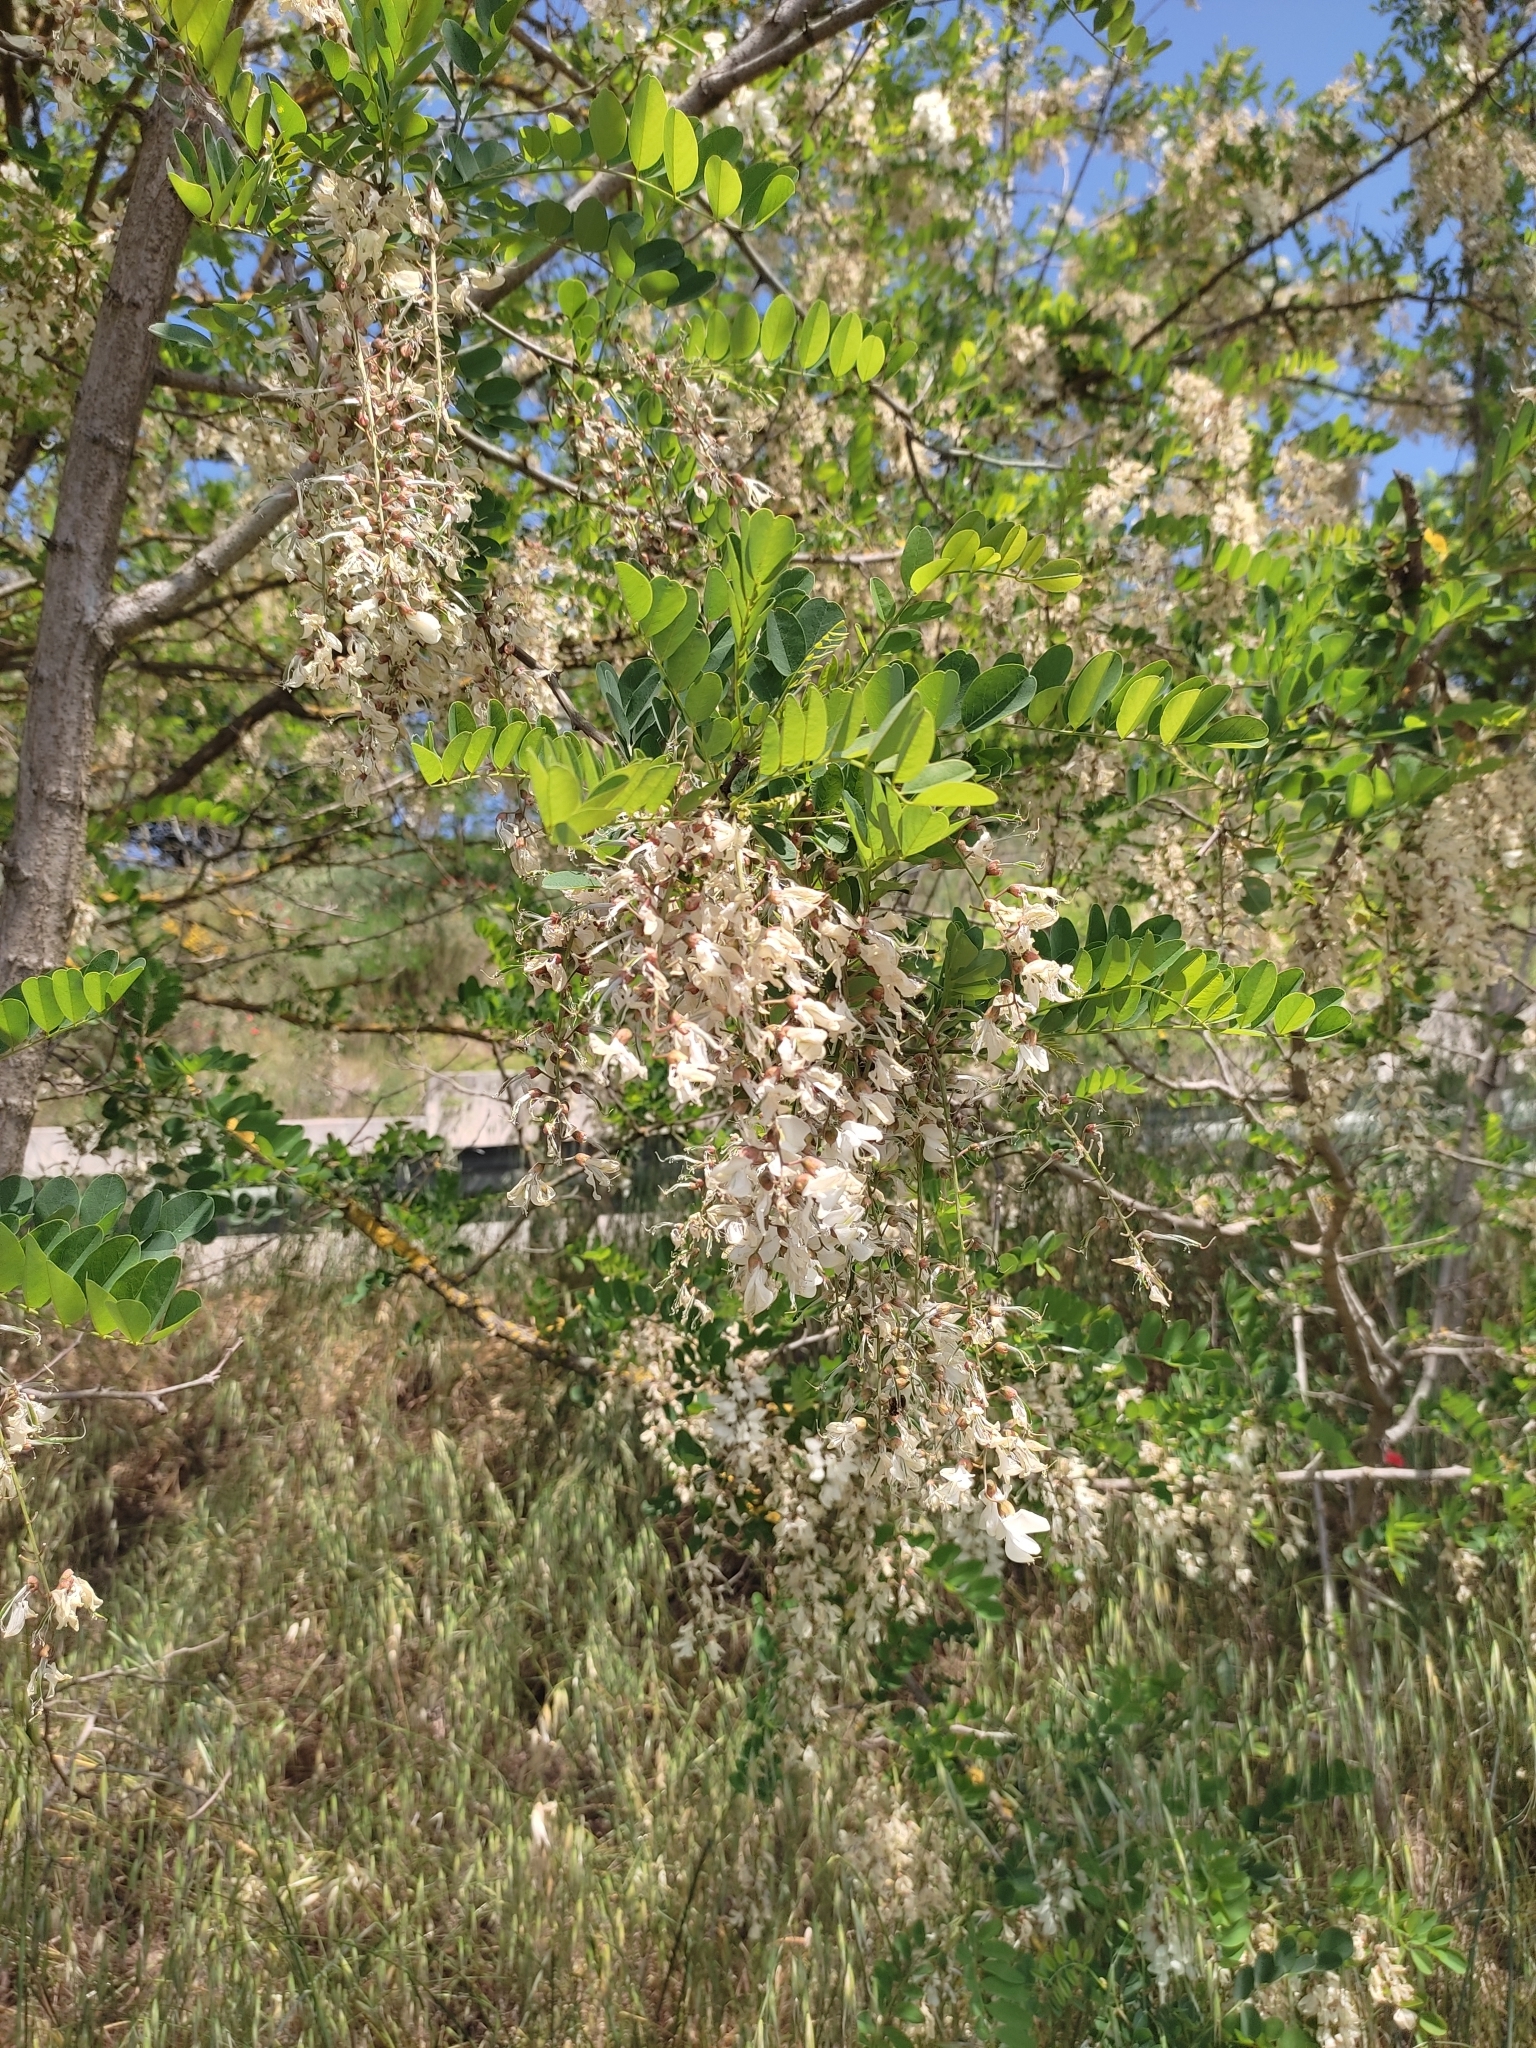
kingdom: Plantae
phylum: Tracheophyta
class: Magnoliopsida
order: Fabales
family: Fabaceae
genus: Robinia
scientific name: Robinia pseudoacacia
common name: Black locust
